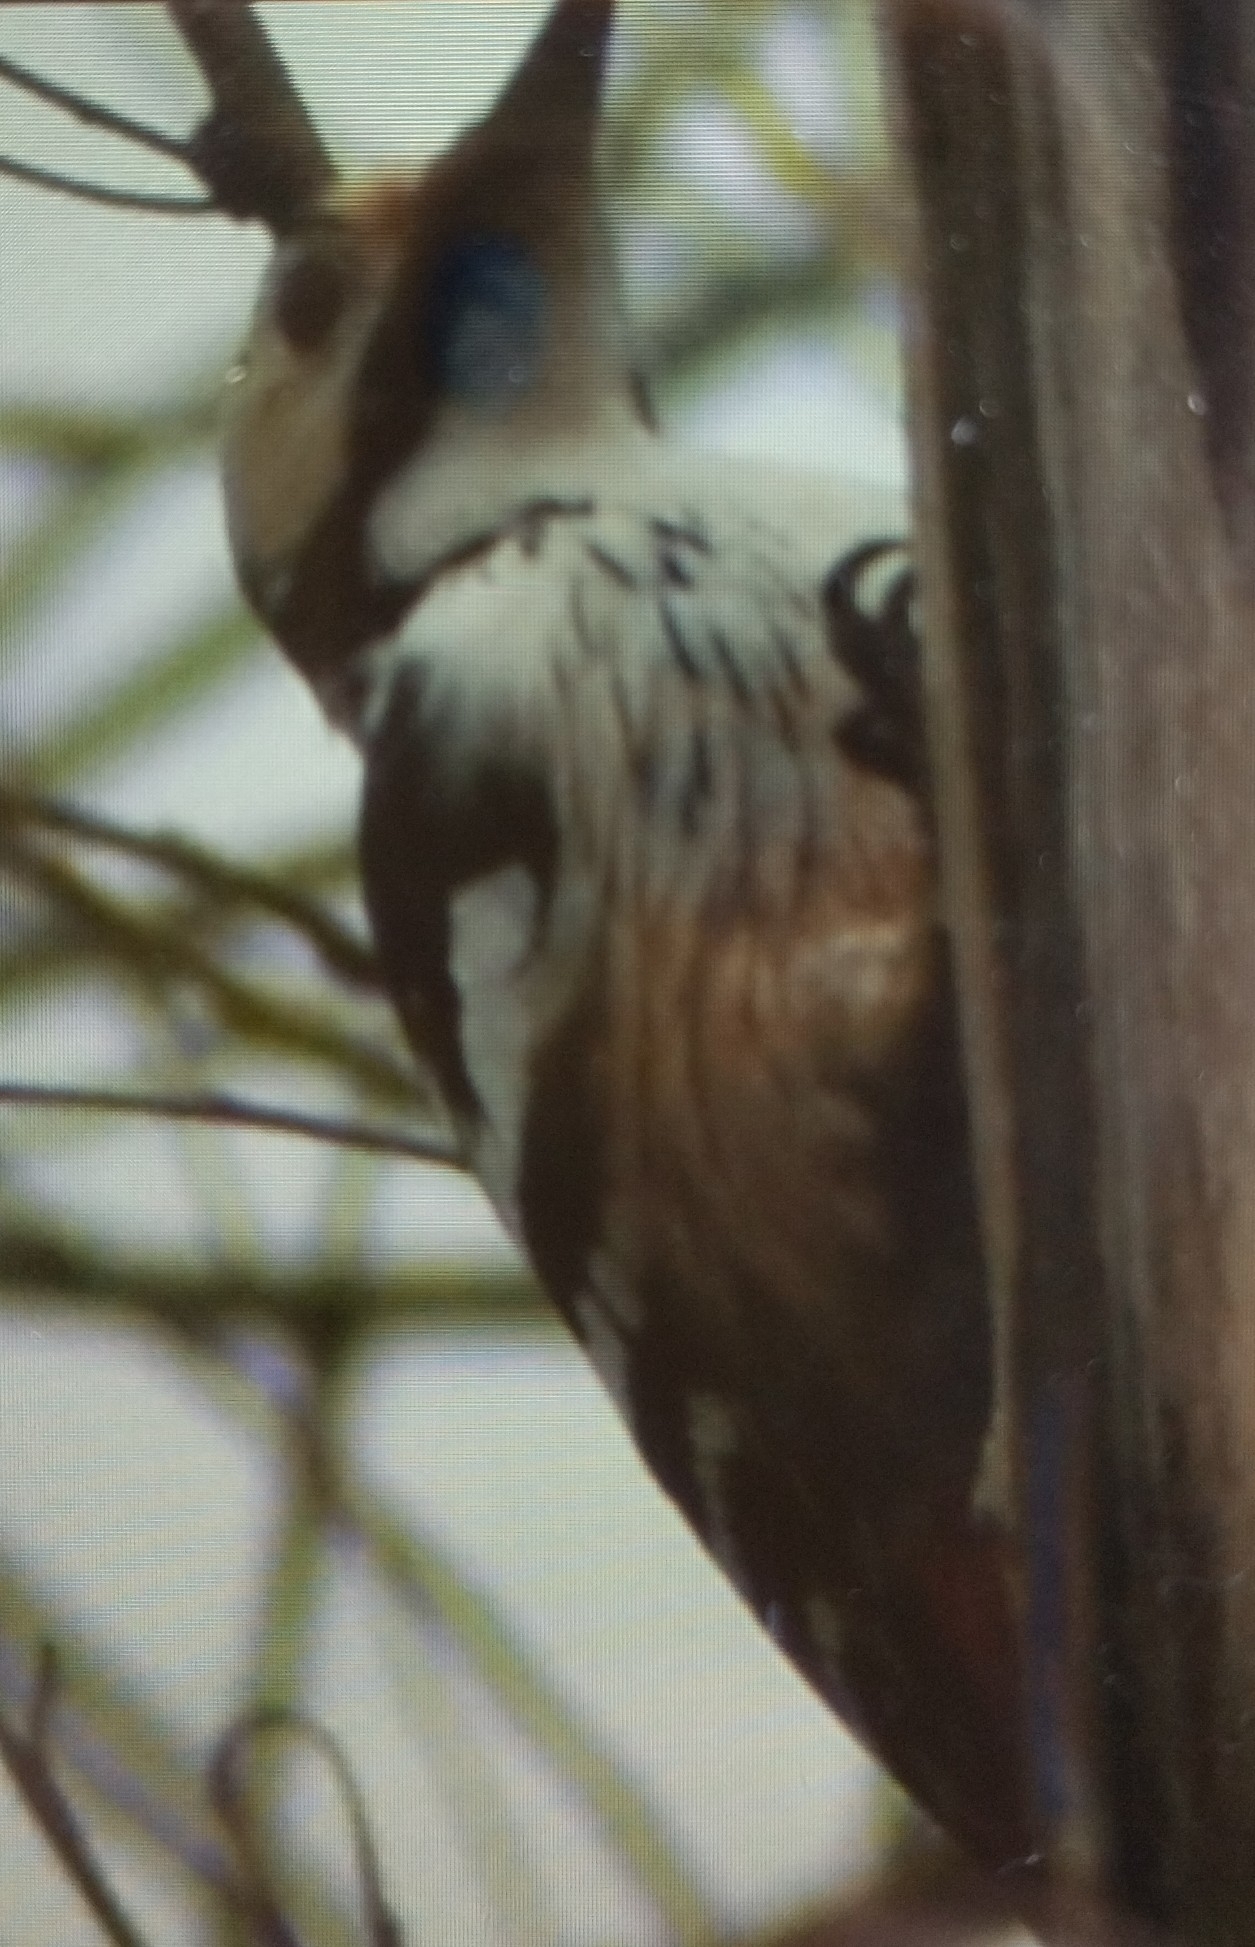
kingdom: Animalia
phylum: Chordata
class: Aves
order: Piciformes
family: Picidae
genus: Dendrocopos
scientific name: Dendrocopos leucotos
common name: White-backed woodpecker
